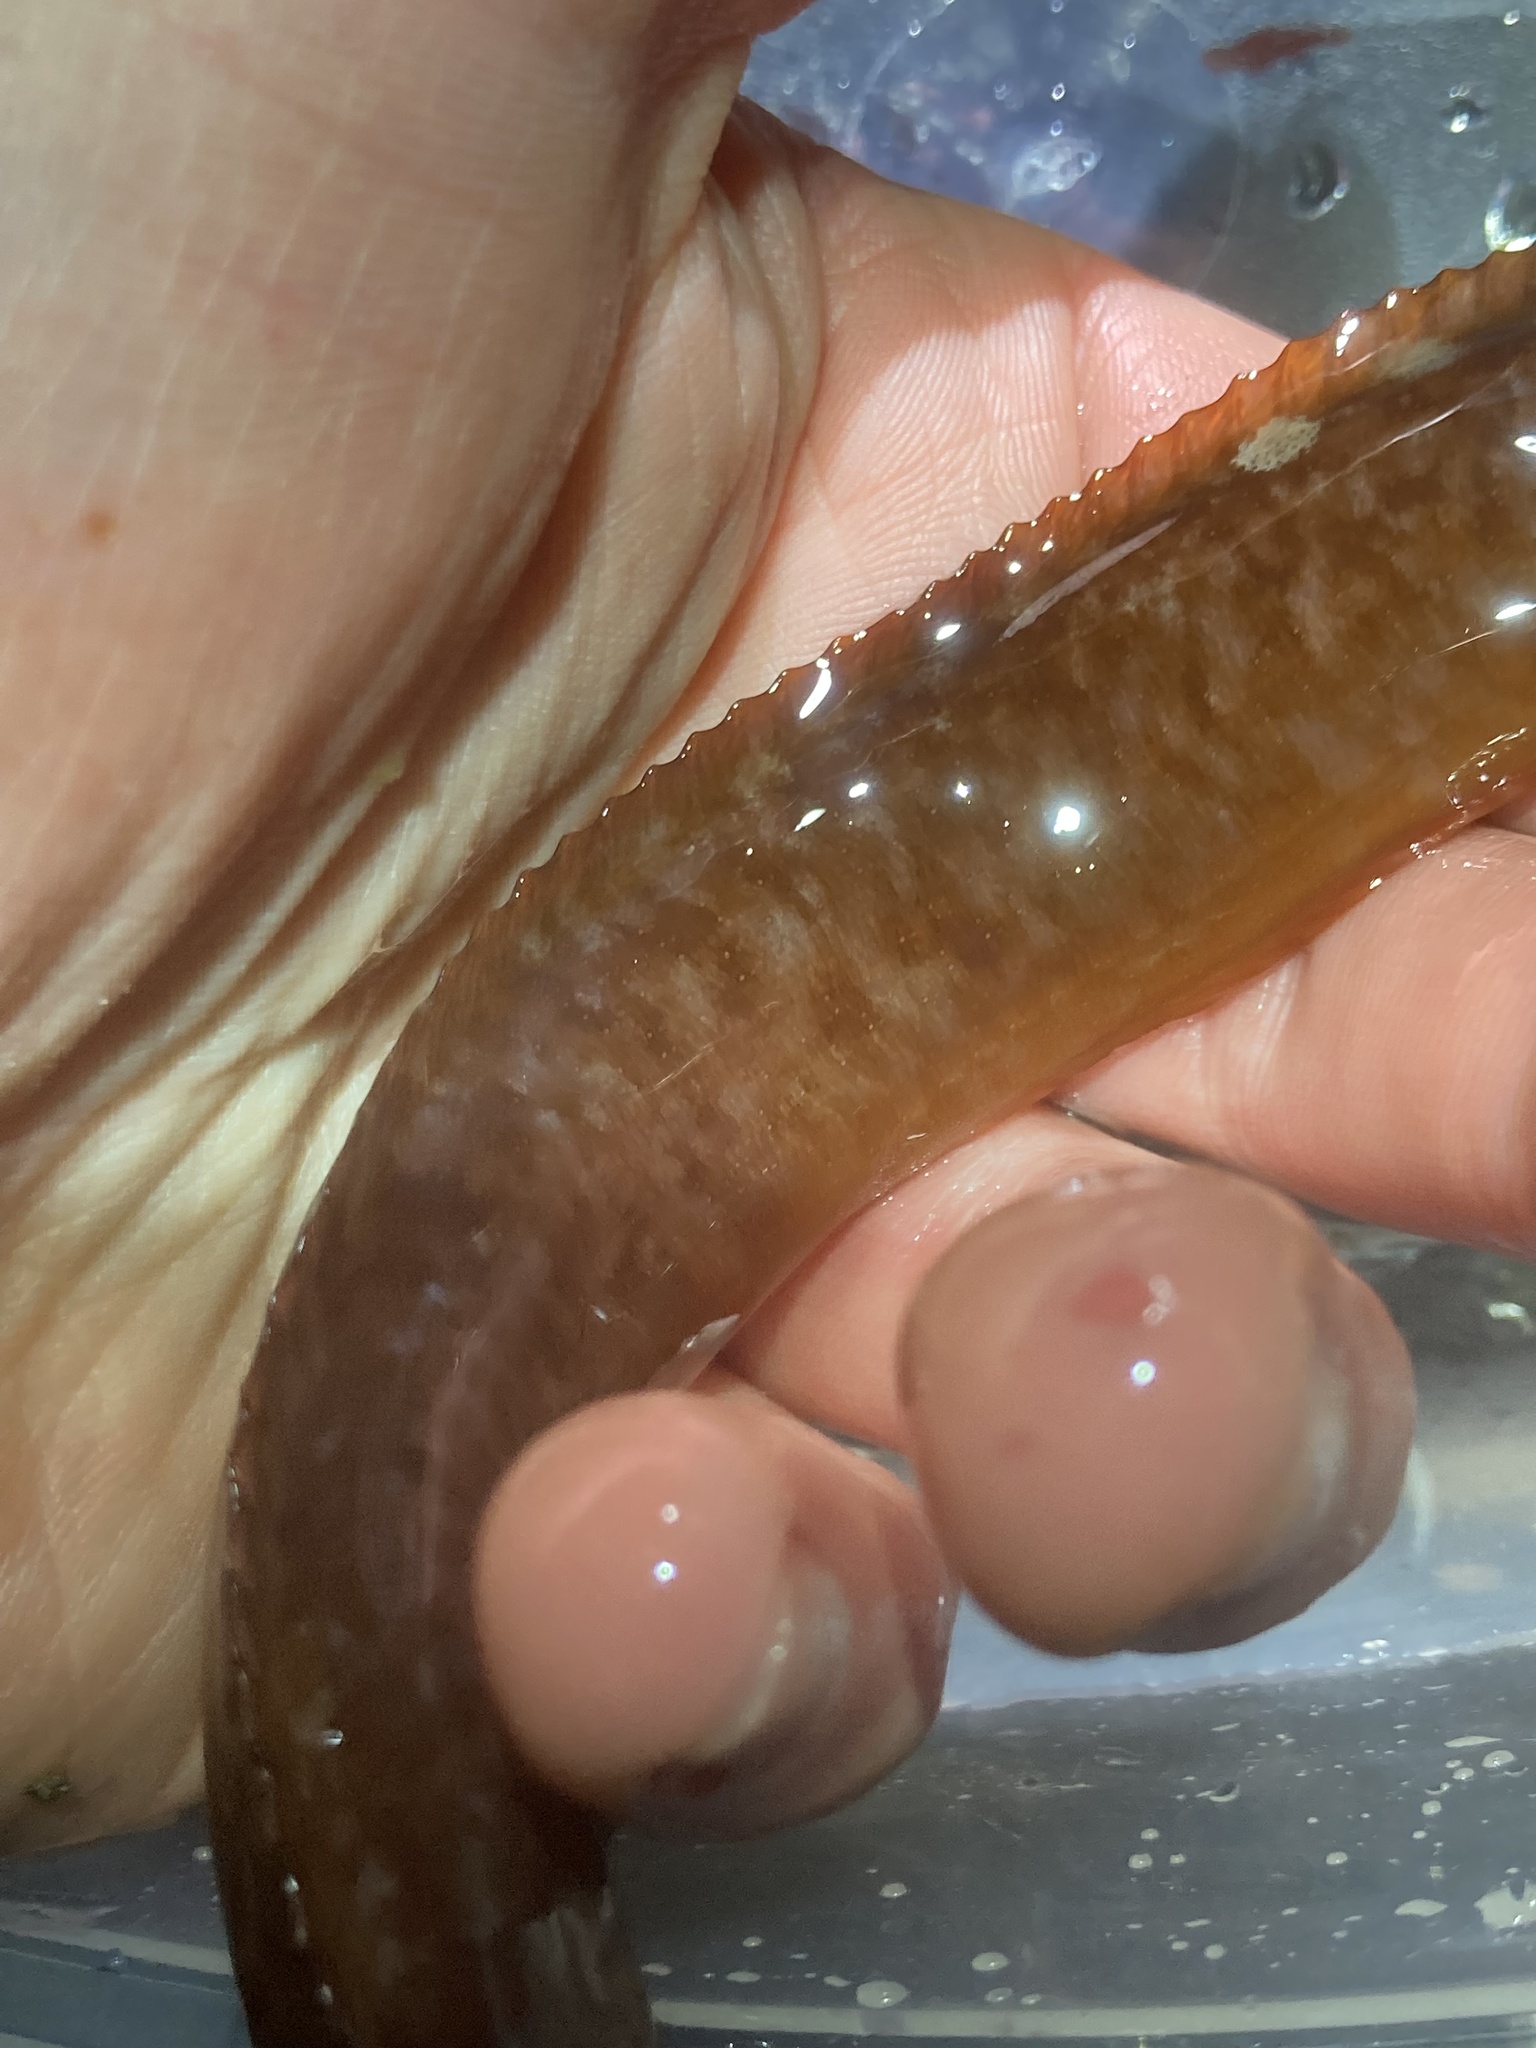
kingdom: Animalia
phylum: Chordata
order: Perciformes
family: Stichaeidae
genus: Phytichthys
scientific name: Phytichthys chirus
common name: Ribbon prickleback
